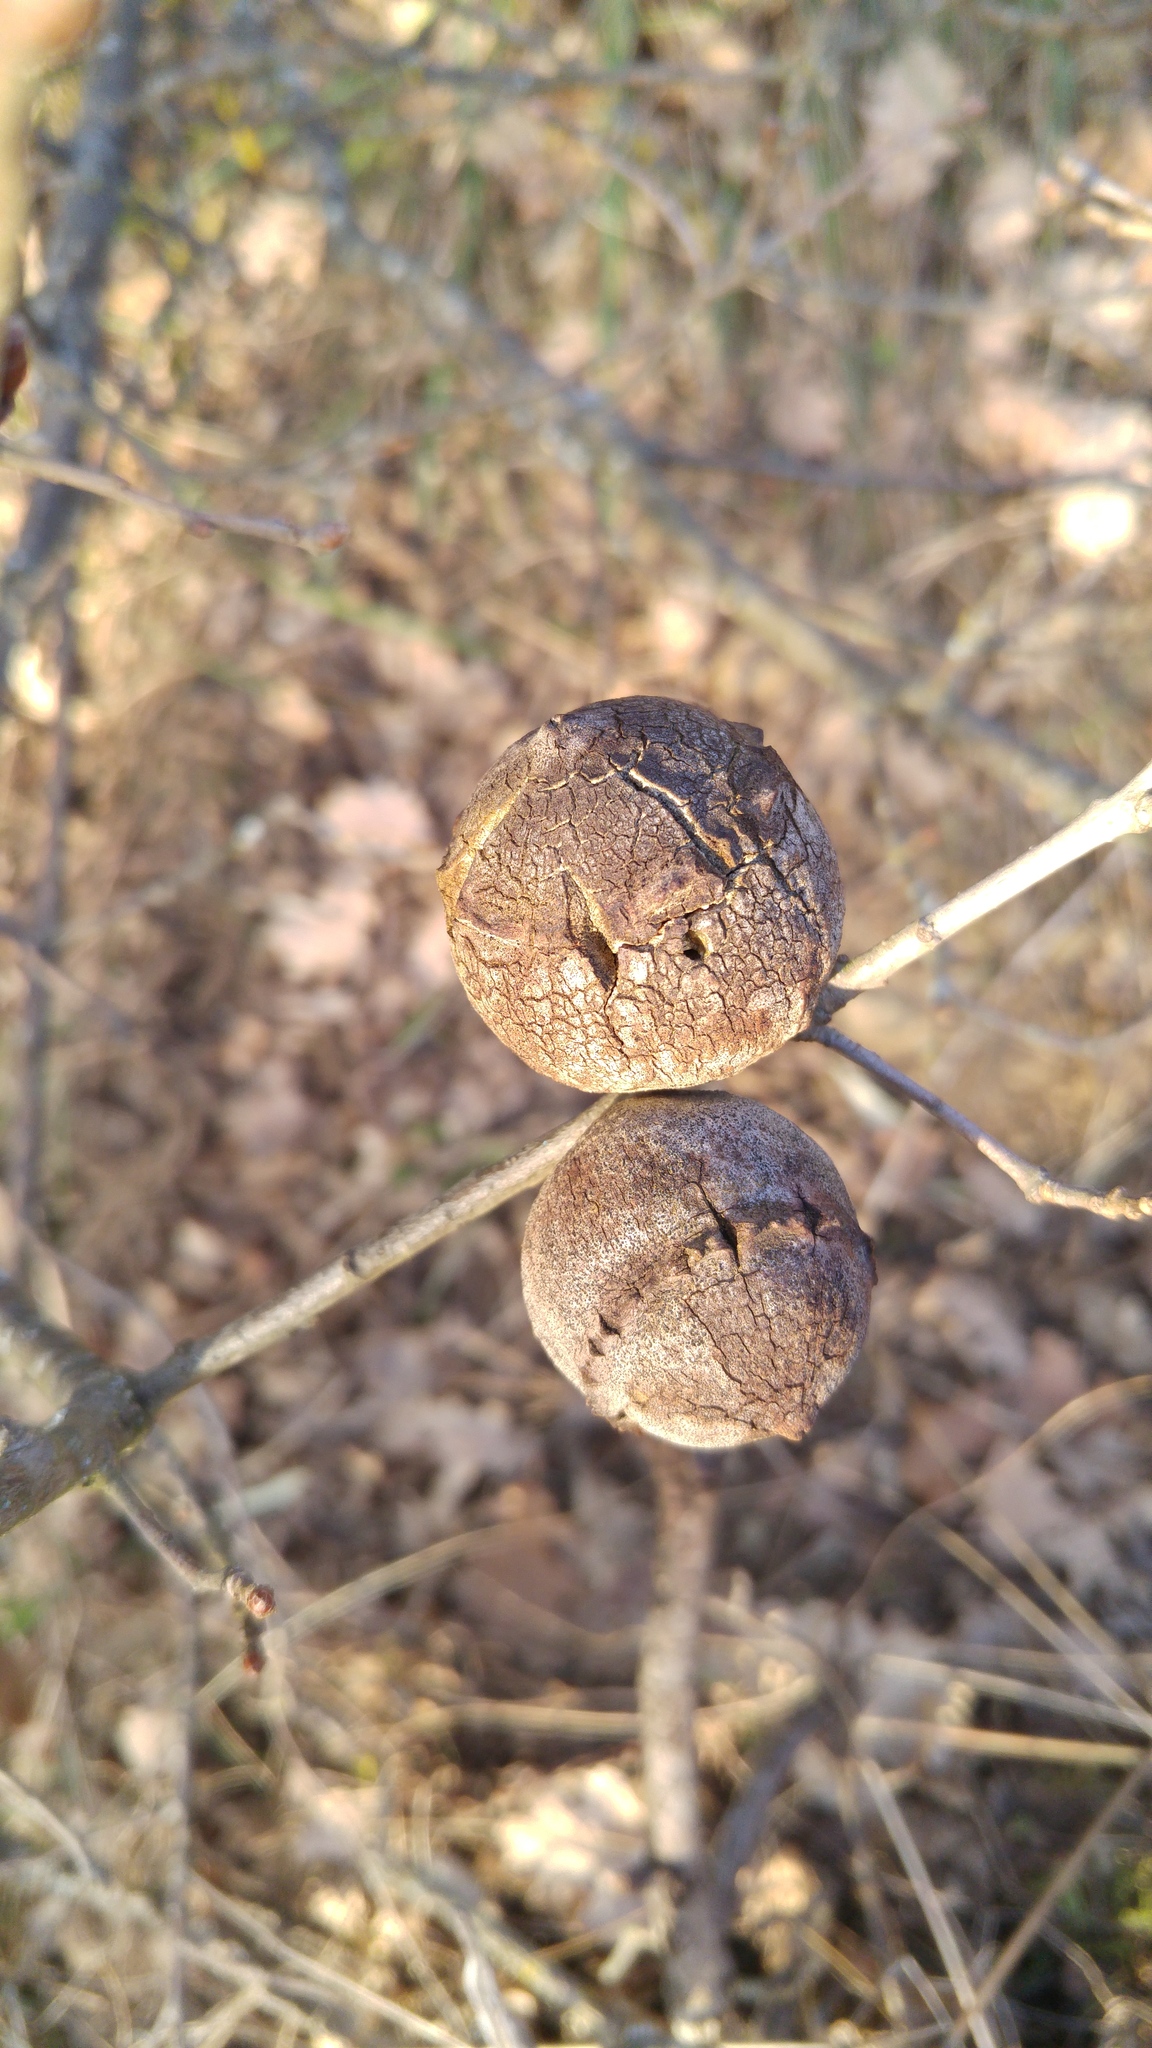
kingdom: Animalia
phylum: Arthropoda
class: Insecta
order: Hymenoptera
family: Cynipidae
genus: Andricus
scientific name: Andricus quercustozae
